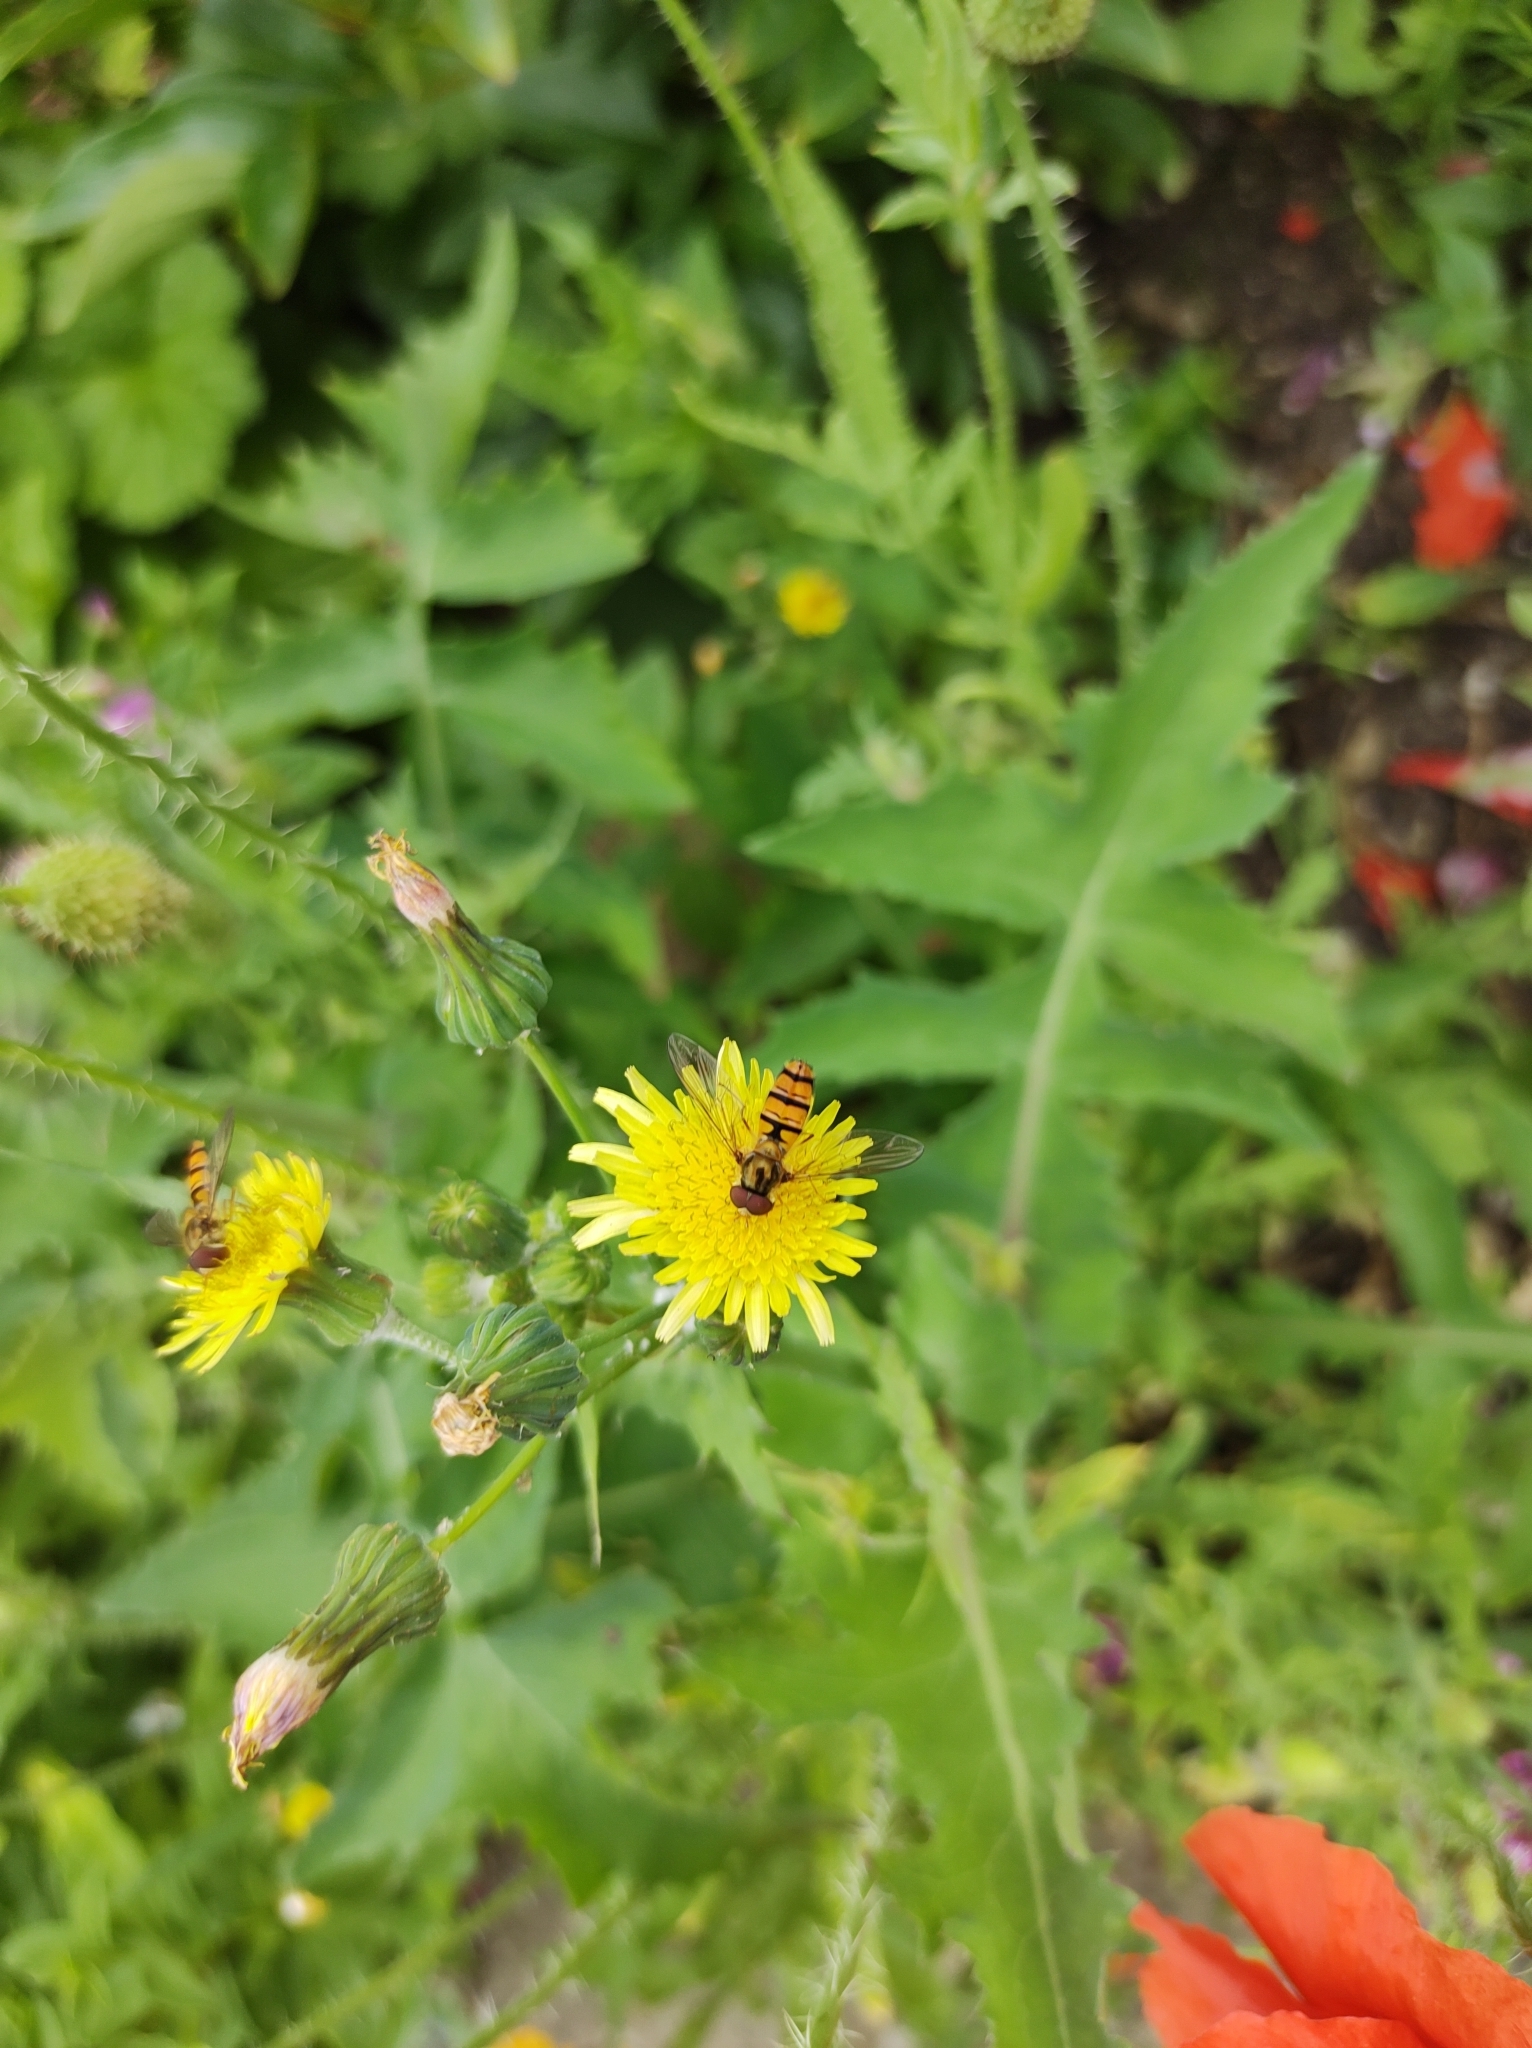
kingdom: Animalia
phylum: Arthropoda
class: Insecta
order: Diptera
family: Syrphidae
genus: Episyrphus
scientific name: Episyrphus balteatus
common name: Marmalade hoverfly
